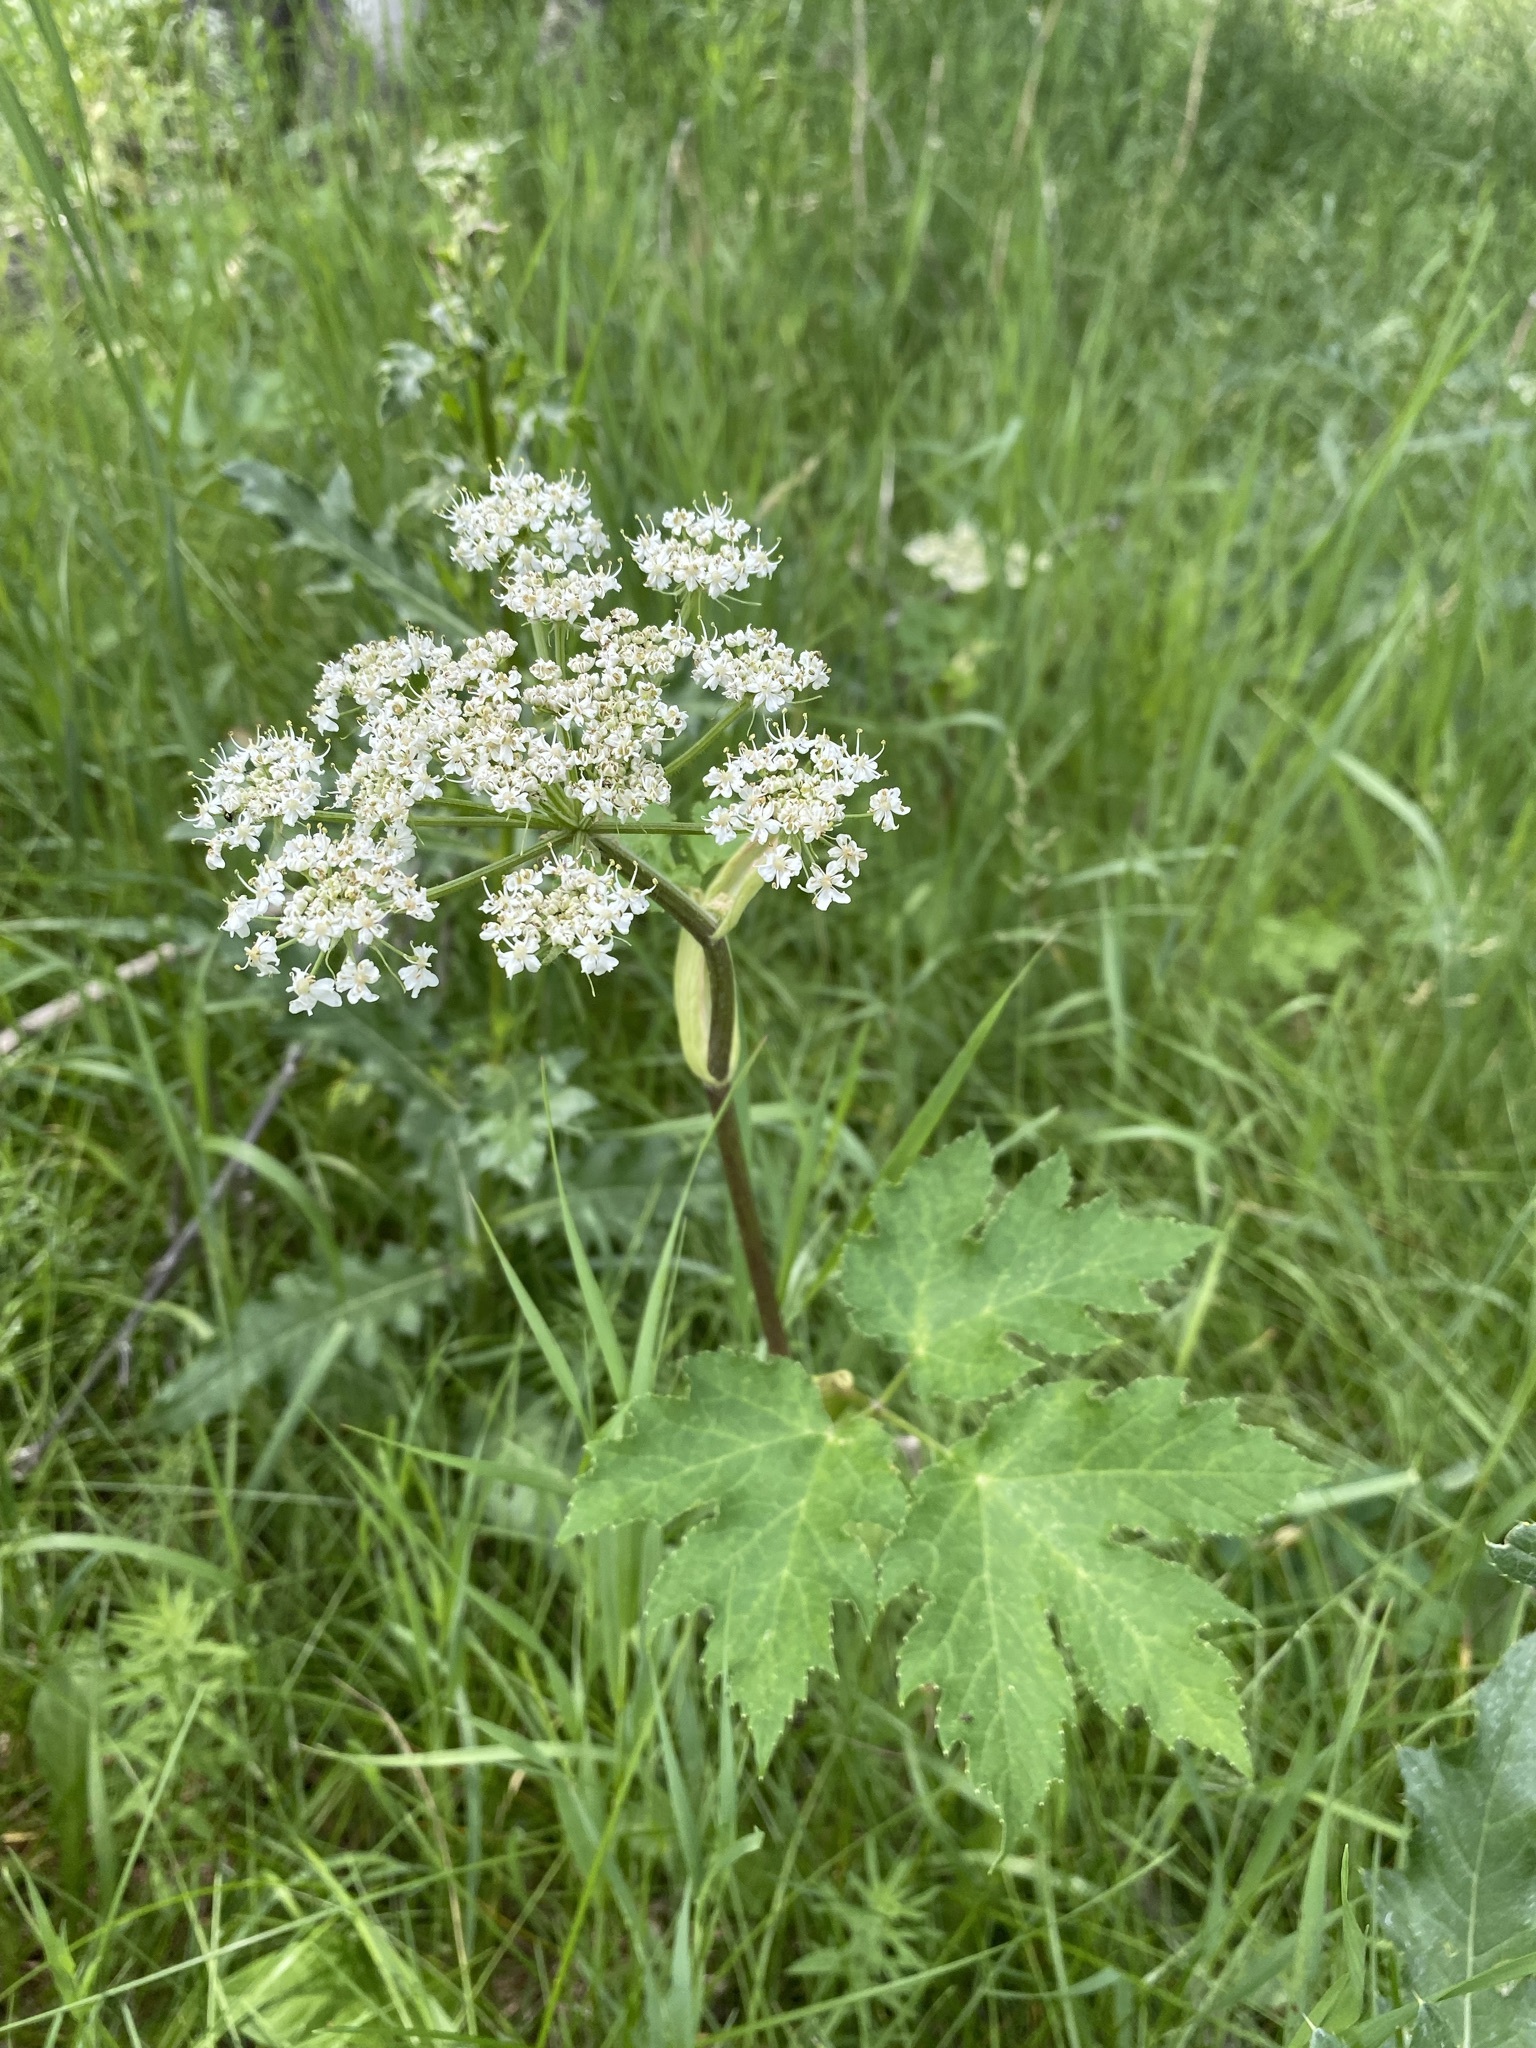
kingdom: Plantae
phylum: Tracheophyta
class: Magnoliopsida
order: Apiales
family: Apiaceae
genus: Heracleum
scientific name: Heracleum maximum
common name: American cow parsnip
